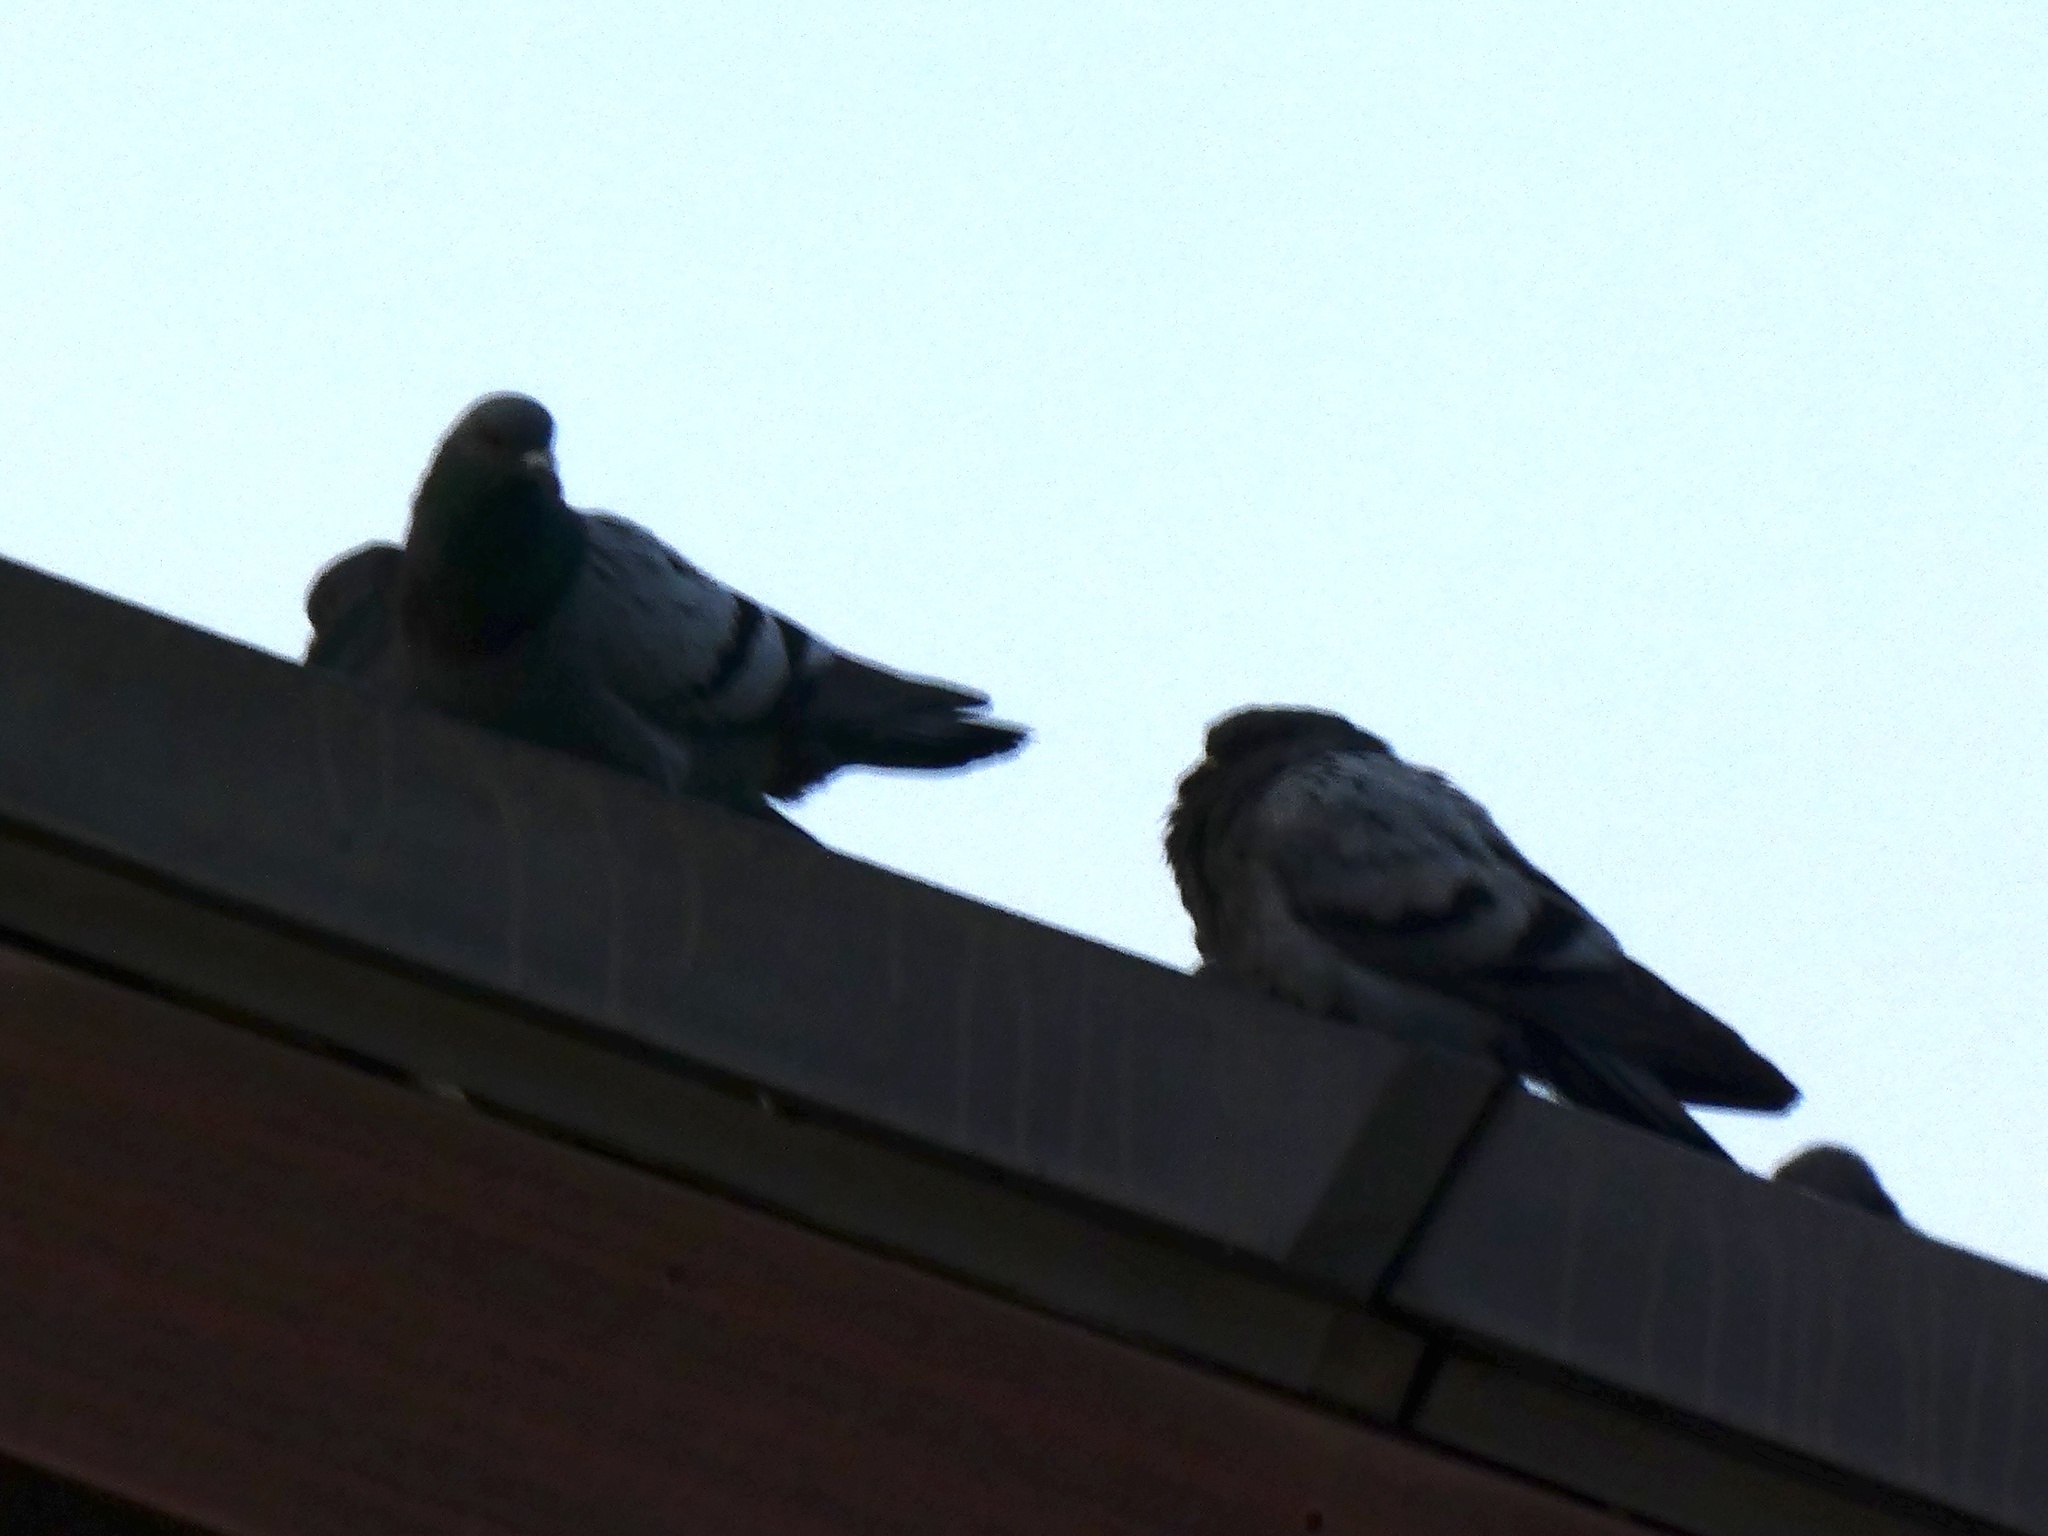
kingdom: Animalia
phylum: Chordata
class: Aves
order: Columbiformes
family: Columbidae
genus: Columba
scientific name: Columba livia
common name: Rock pigeon
